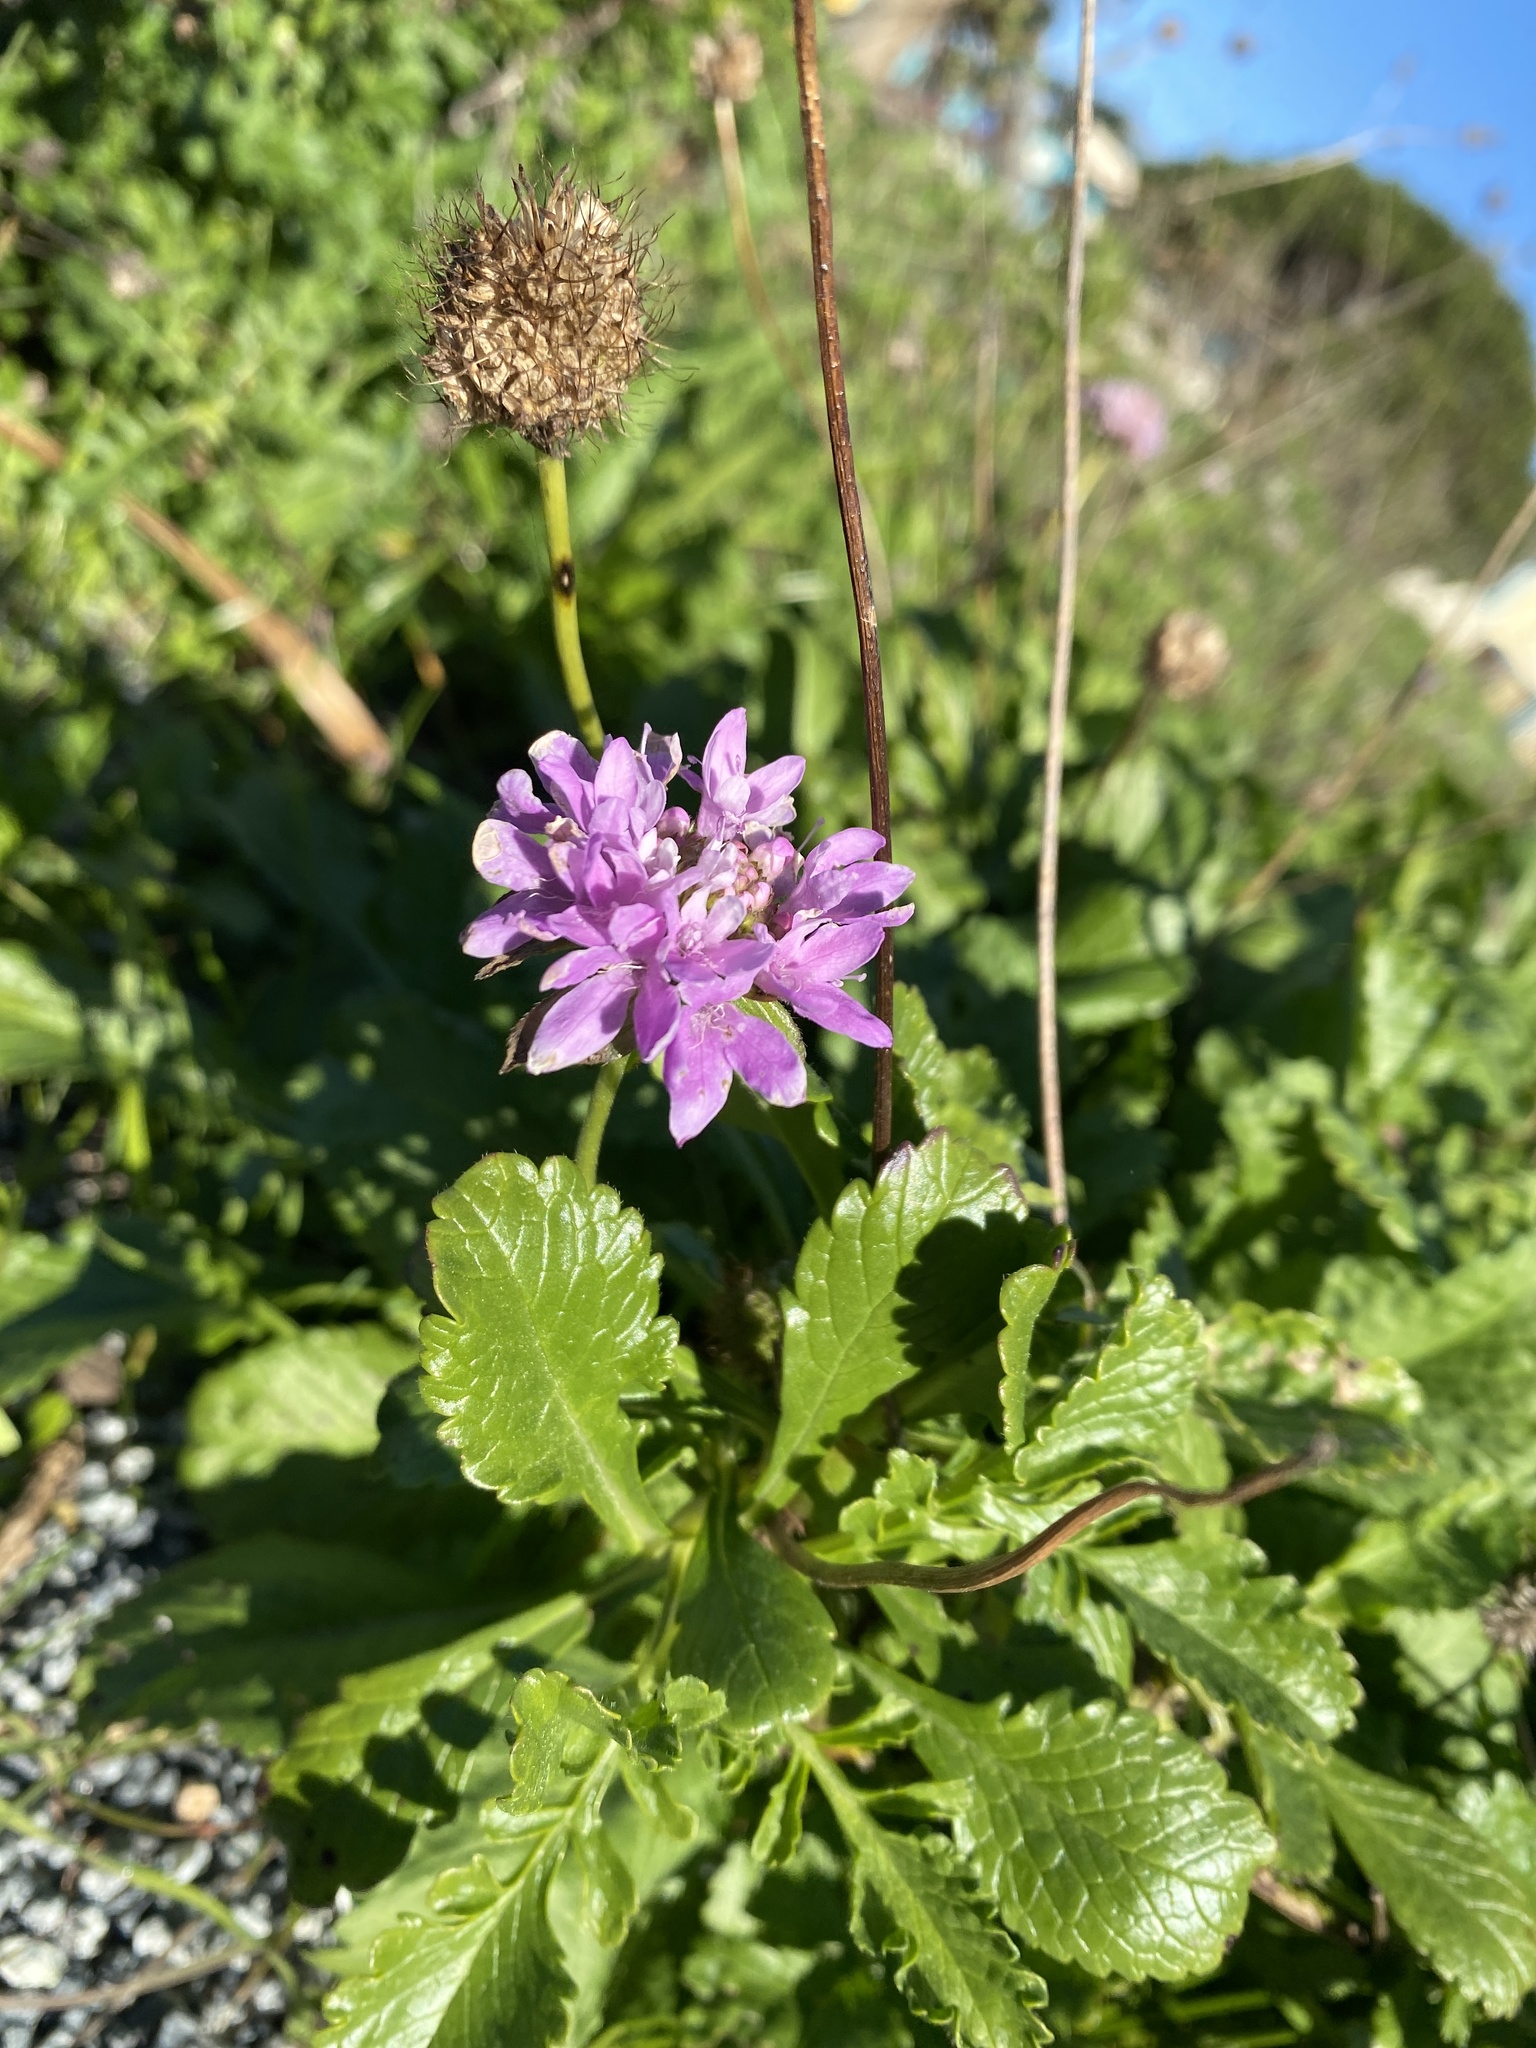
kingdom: Plantae
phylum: Tracheophyta
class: Magnoliopsida
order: Dipsacales
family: Caprifoliaceae
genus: Sixalix
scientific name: Sixalix atropurpurea
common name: Sweet scabious
